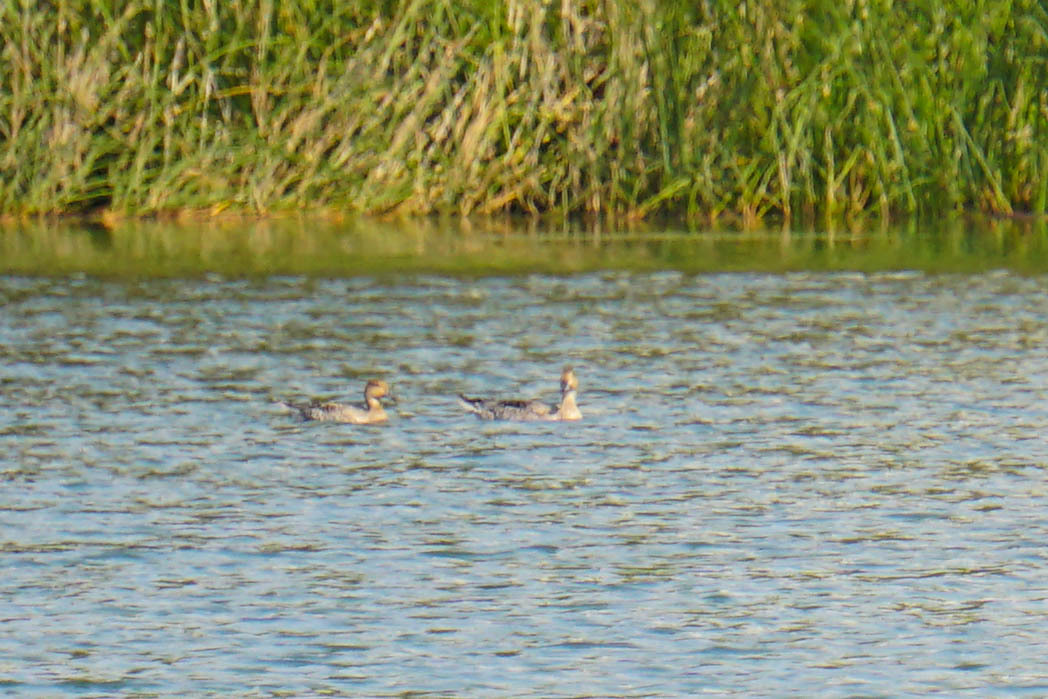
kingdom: Animalia
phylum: Chordata
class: Aves
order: Anseriformes
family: Anatidae
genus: Anas
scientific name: Anas acuta
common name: Northern pintail
